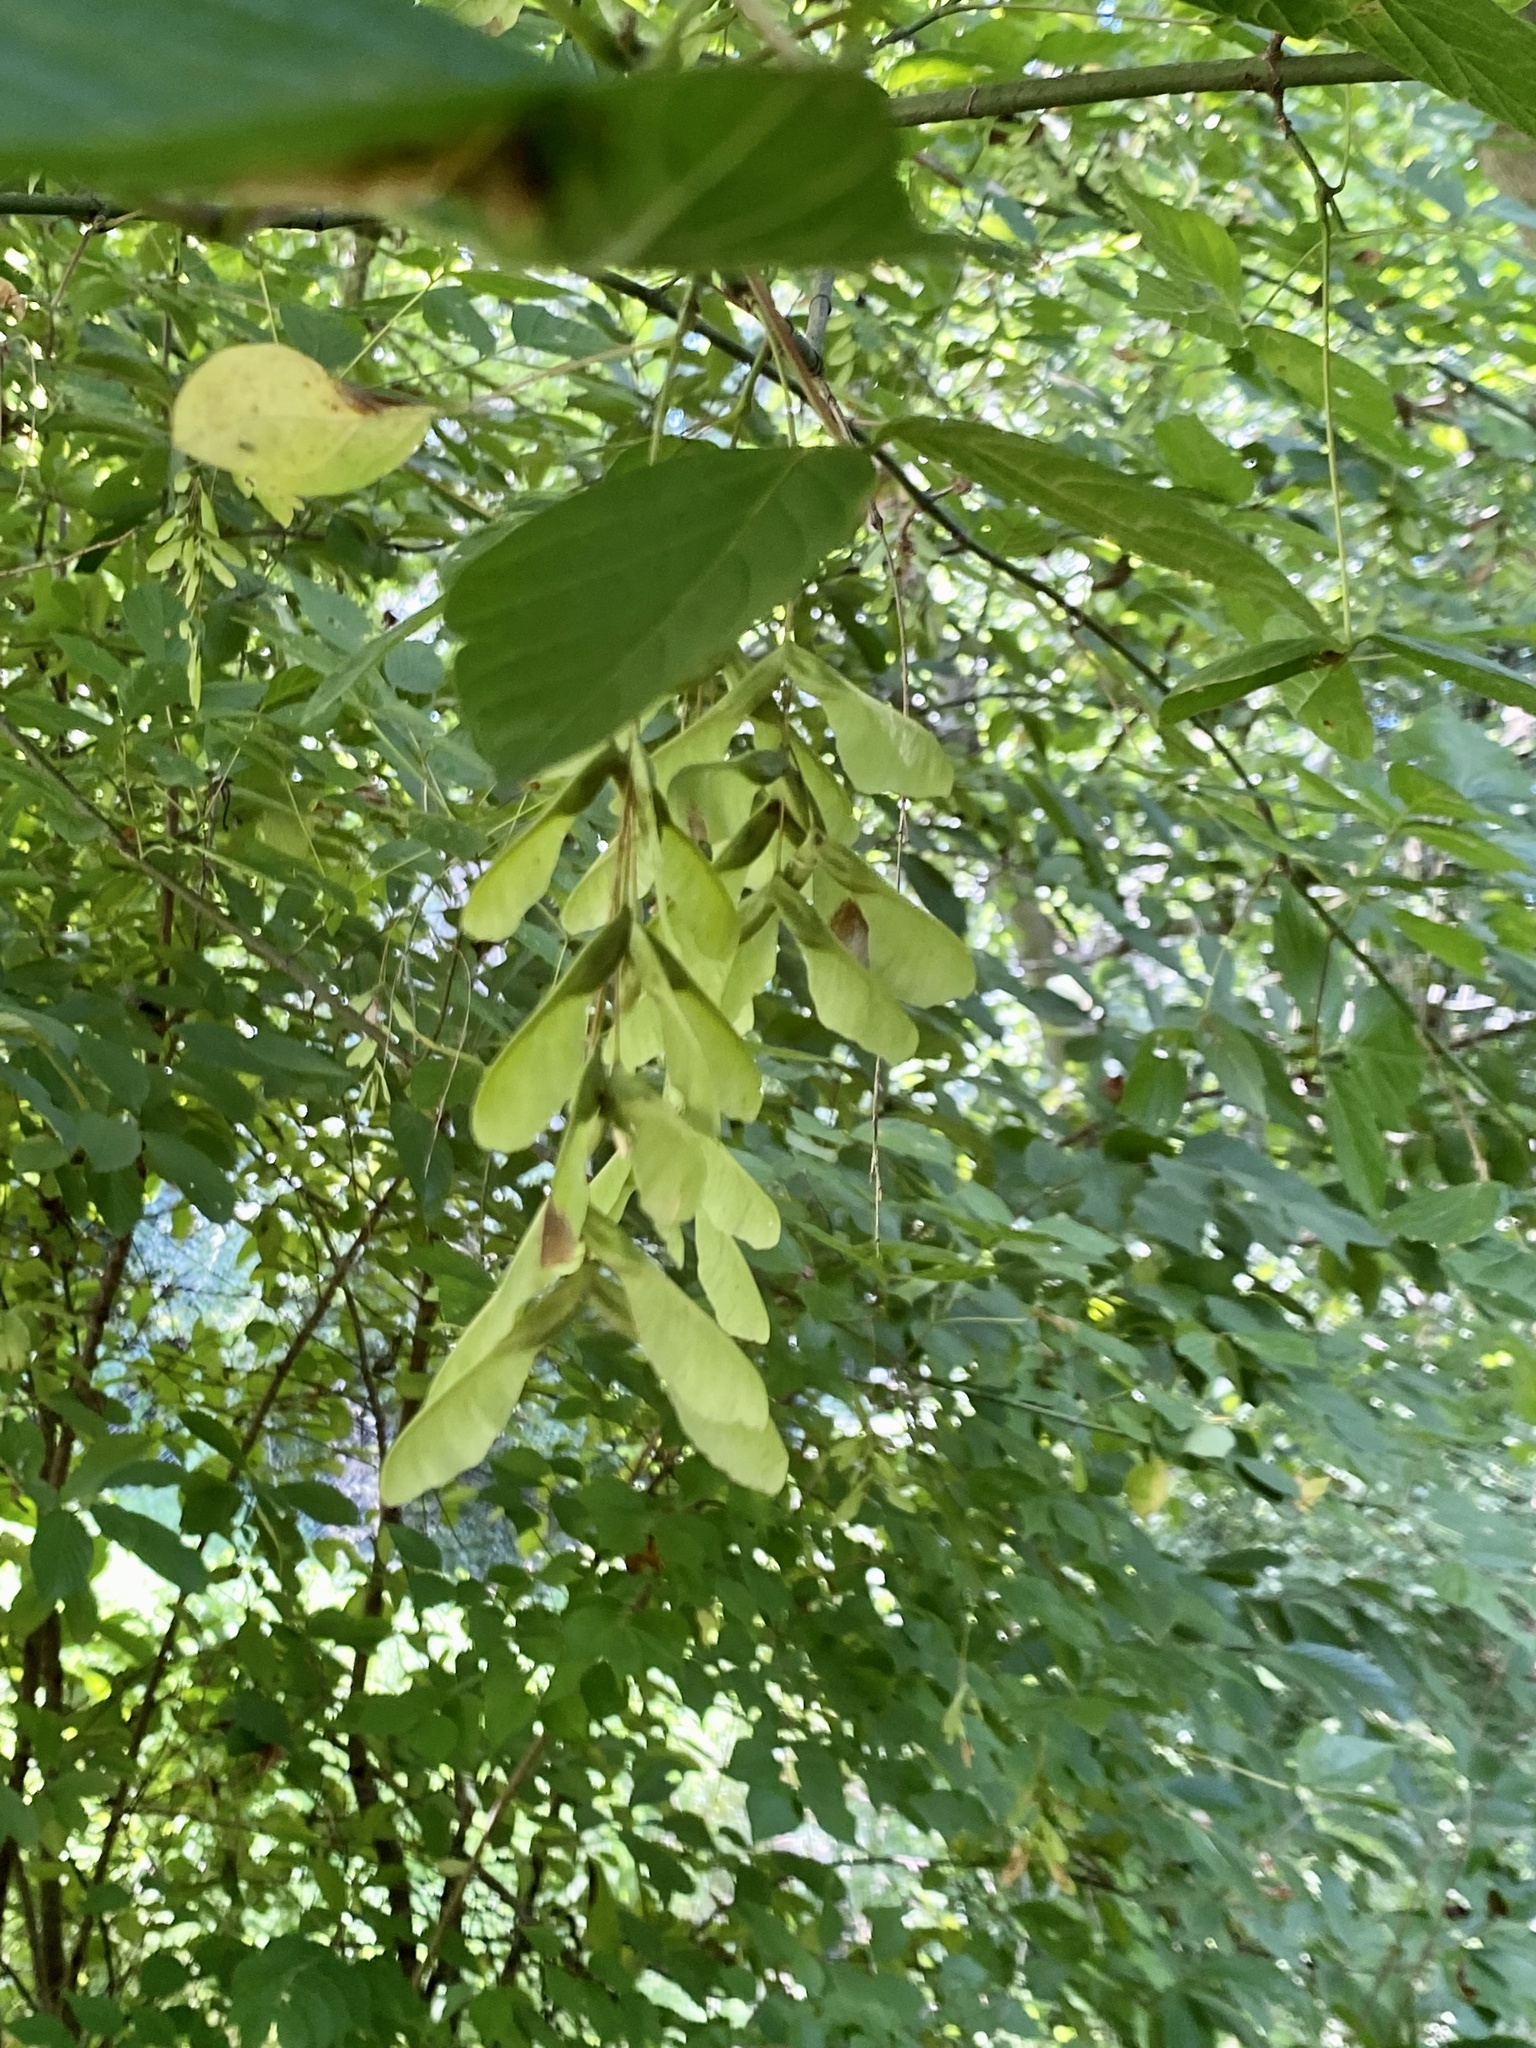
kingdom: Plantae
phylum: Tracheophyta
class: Magnoliopsida
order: Sapindales
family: Sapindaceae
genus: Acer
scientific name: Acer negundo
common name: Ashleaf maple
